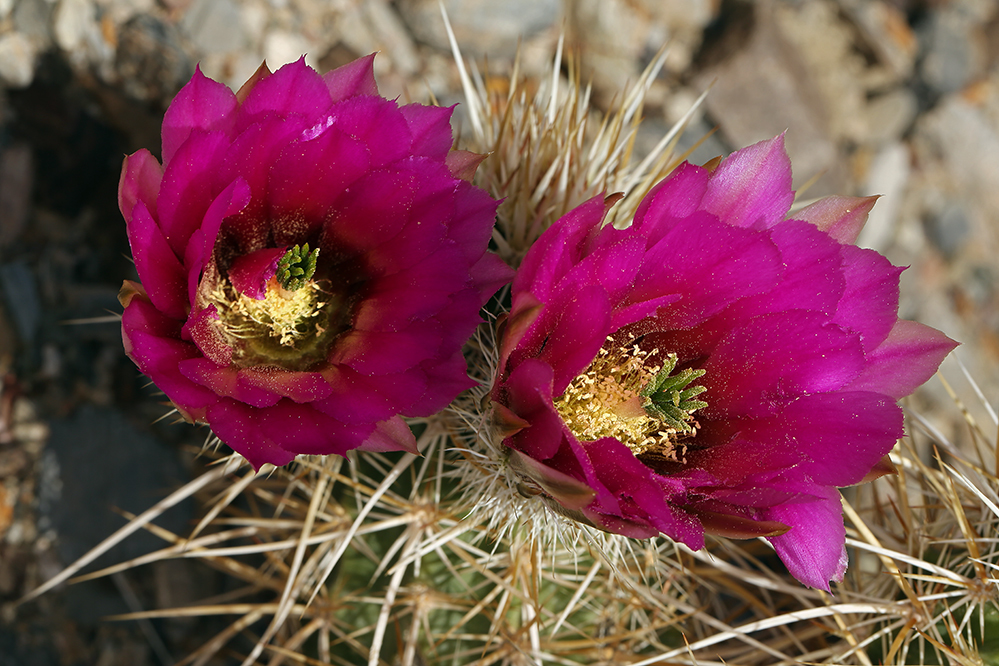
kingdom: Plantae
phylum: Tracheophyta
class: Magnoliopsida
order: Caryophyllales
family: Cactaceae
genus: Echinocereus
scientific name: Echinocereus engelmannii
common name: Engelmann's hedgehog cactus
